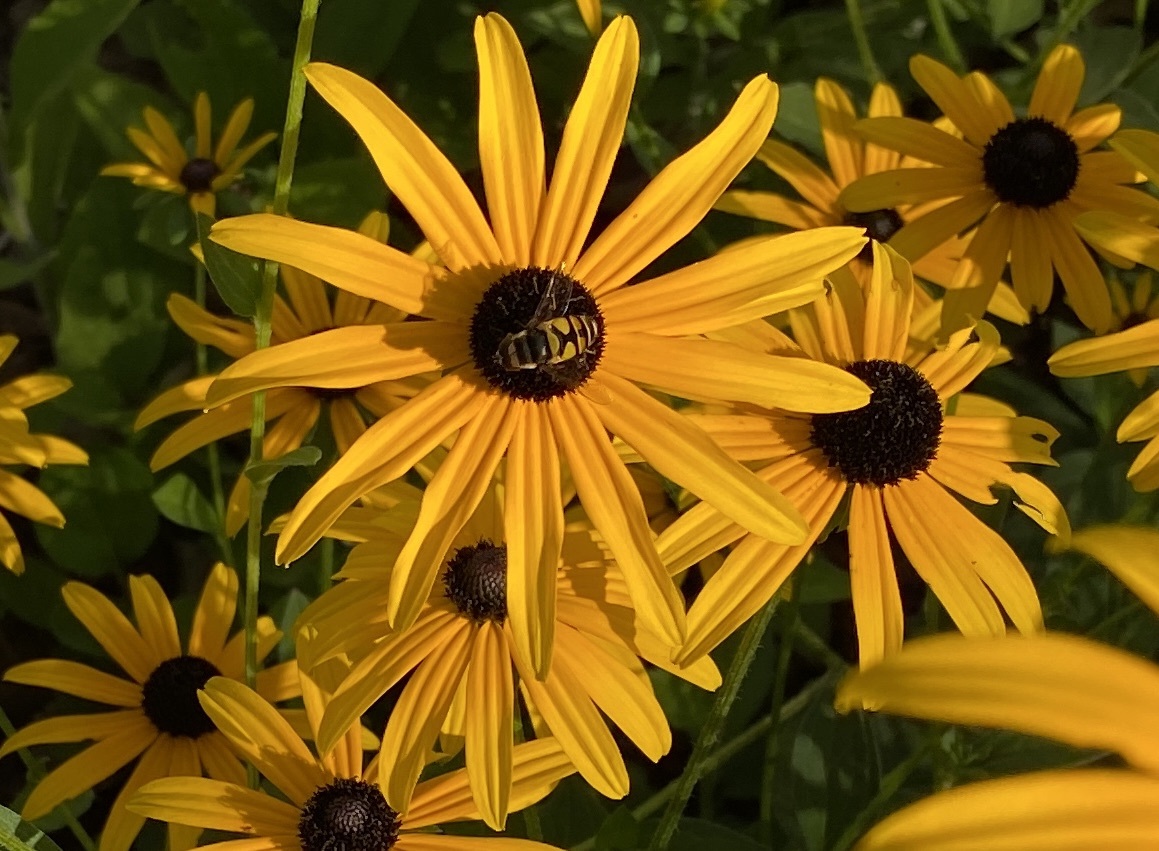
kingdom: Animalia
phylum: Arthropoda
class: Insecta
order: Diptera
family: Syrphidae
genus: Eristalis
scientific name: Eristalis transversa
